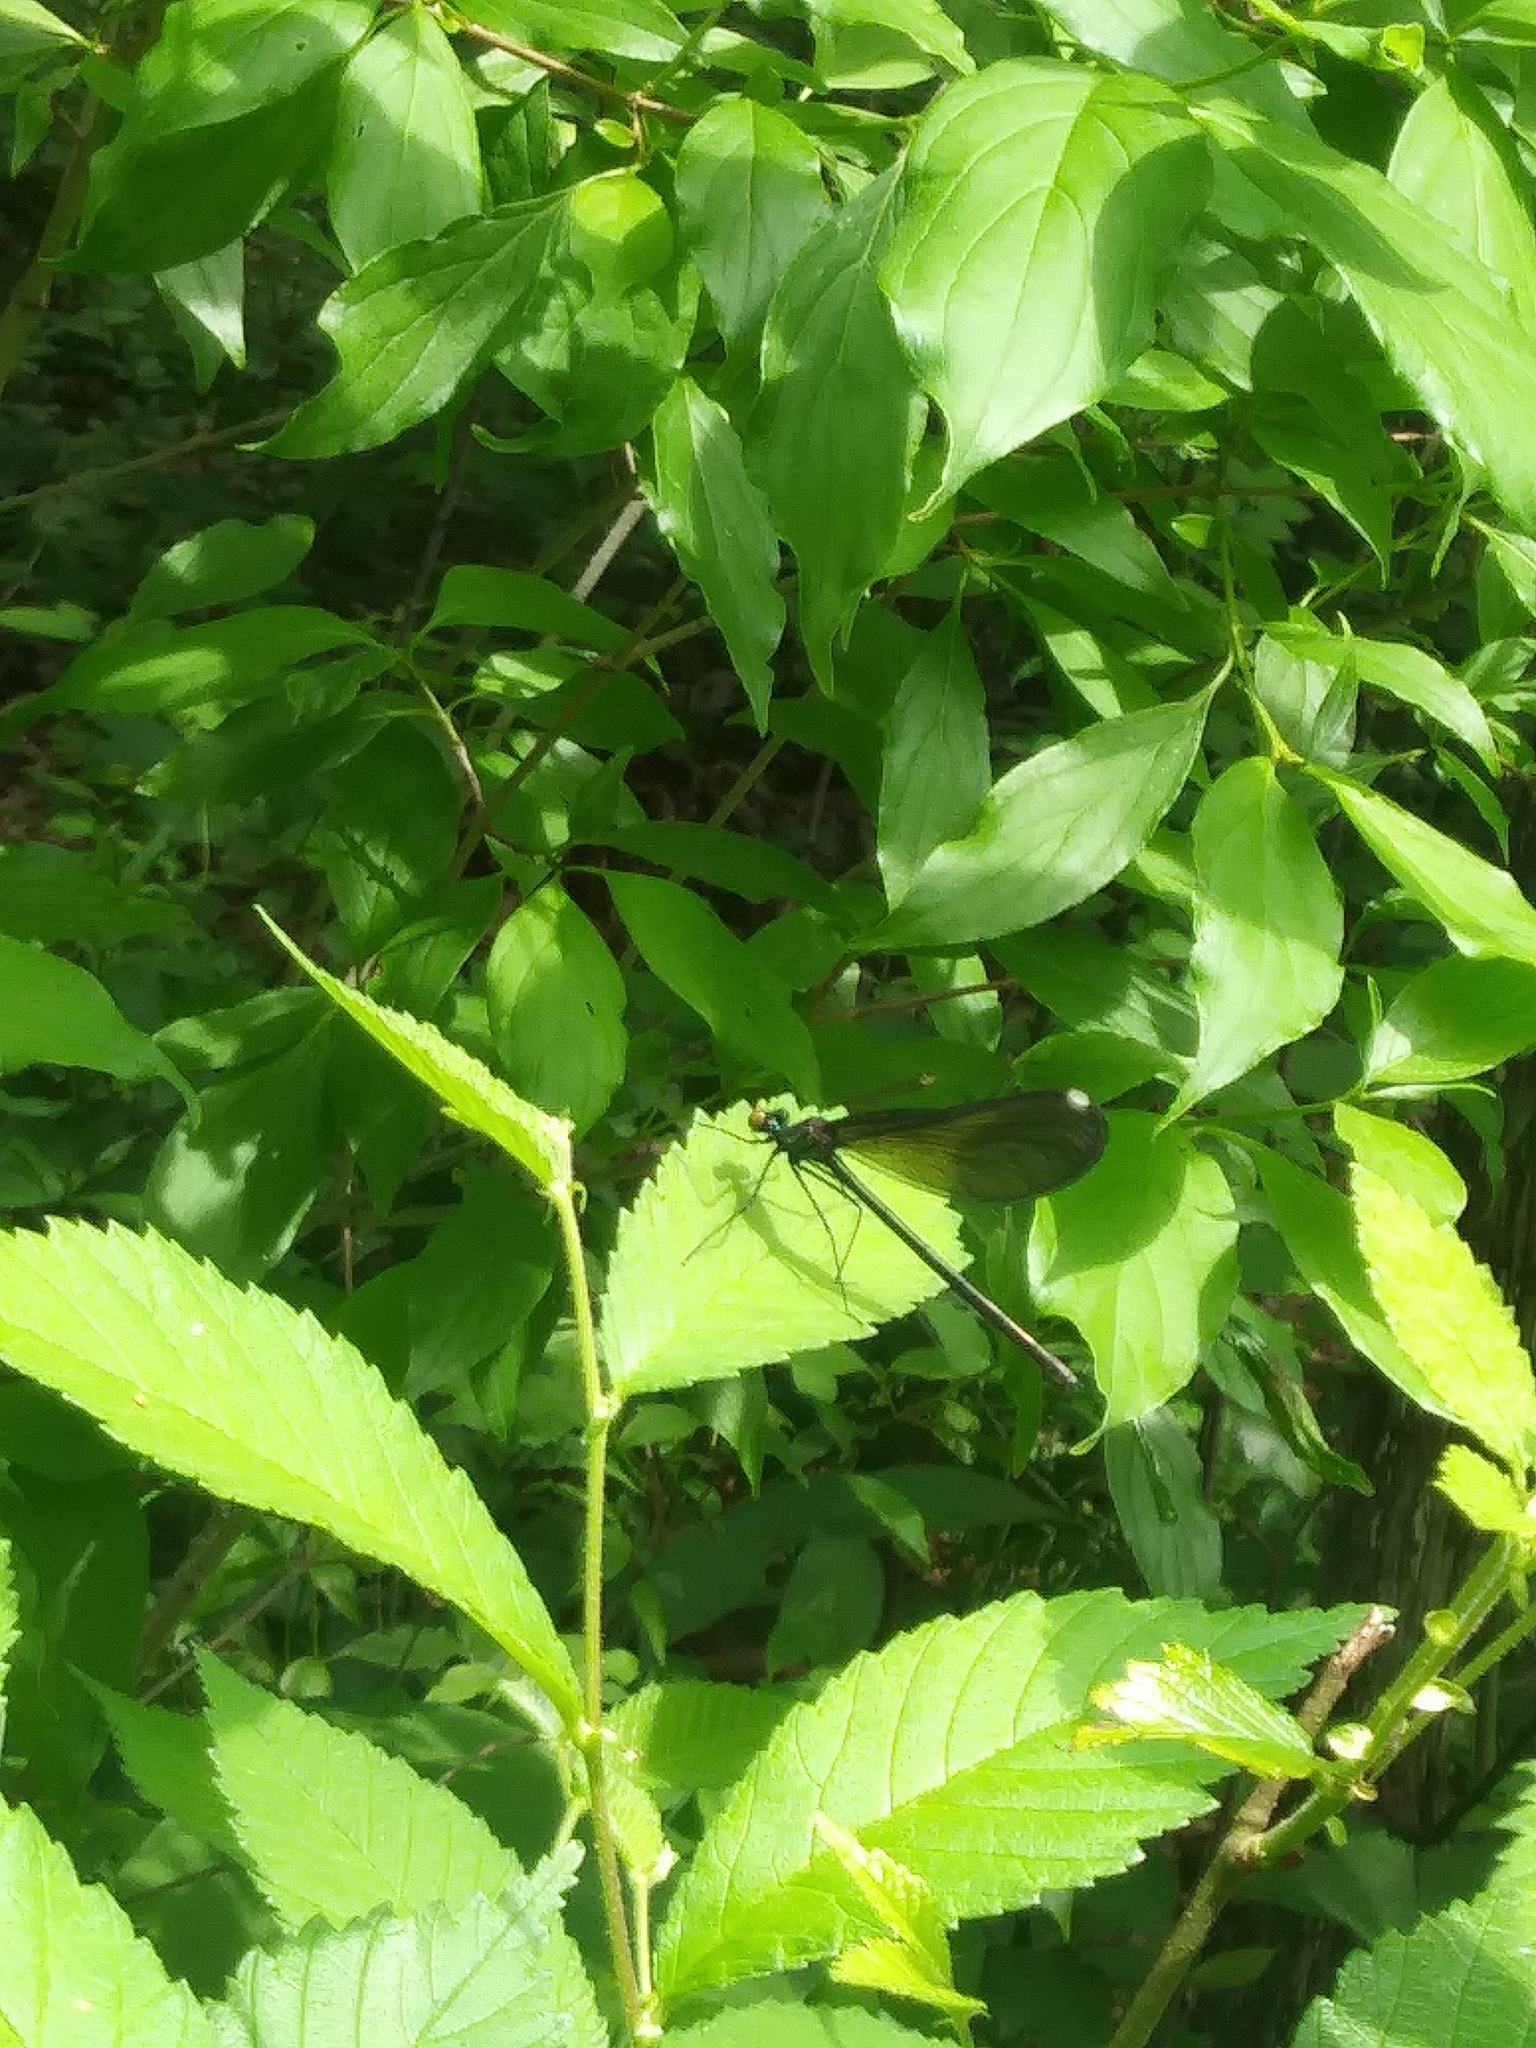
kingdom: Animalia
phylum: Arthropoda
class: Insecta
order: Odonata
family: Calopterygidae
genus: Calopteryx
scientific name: Calopteryx maculata
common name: Ebony jewelwing
